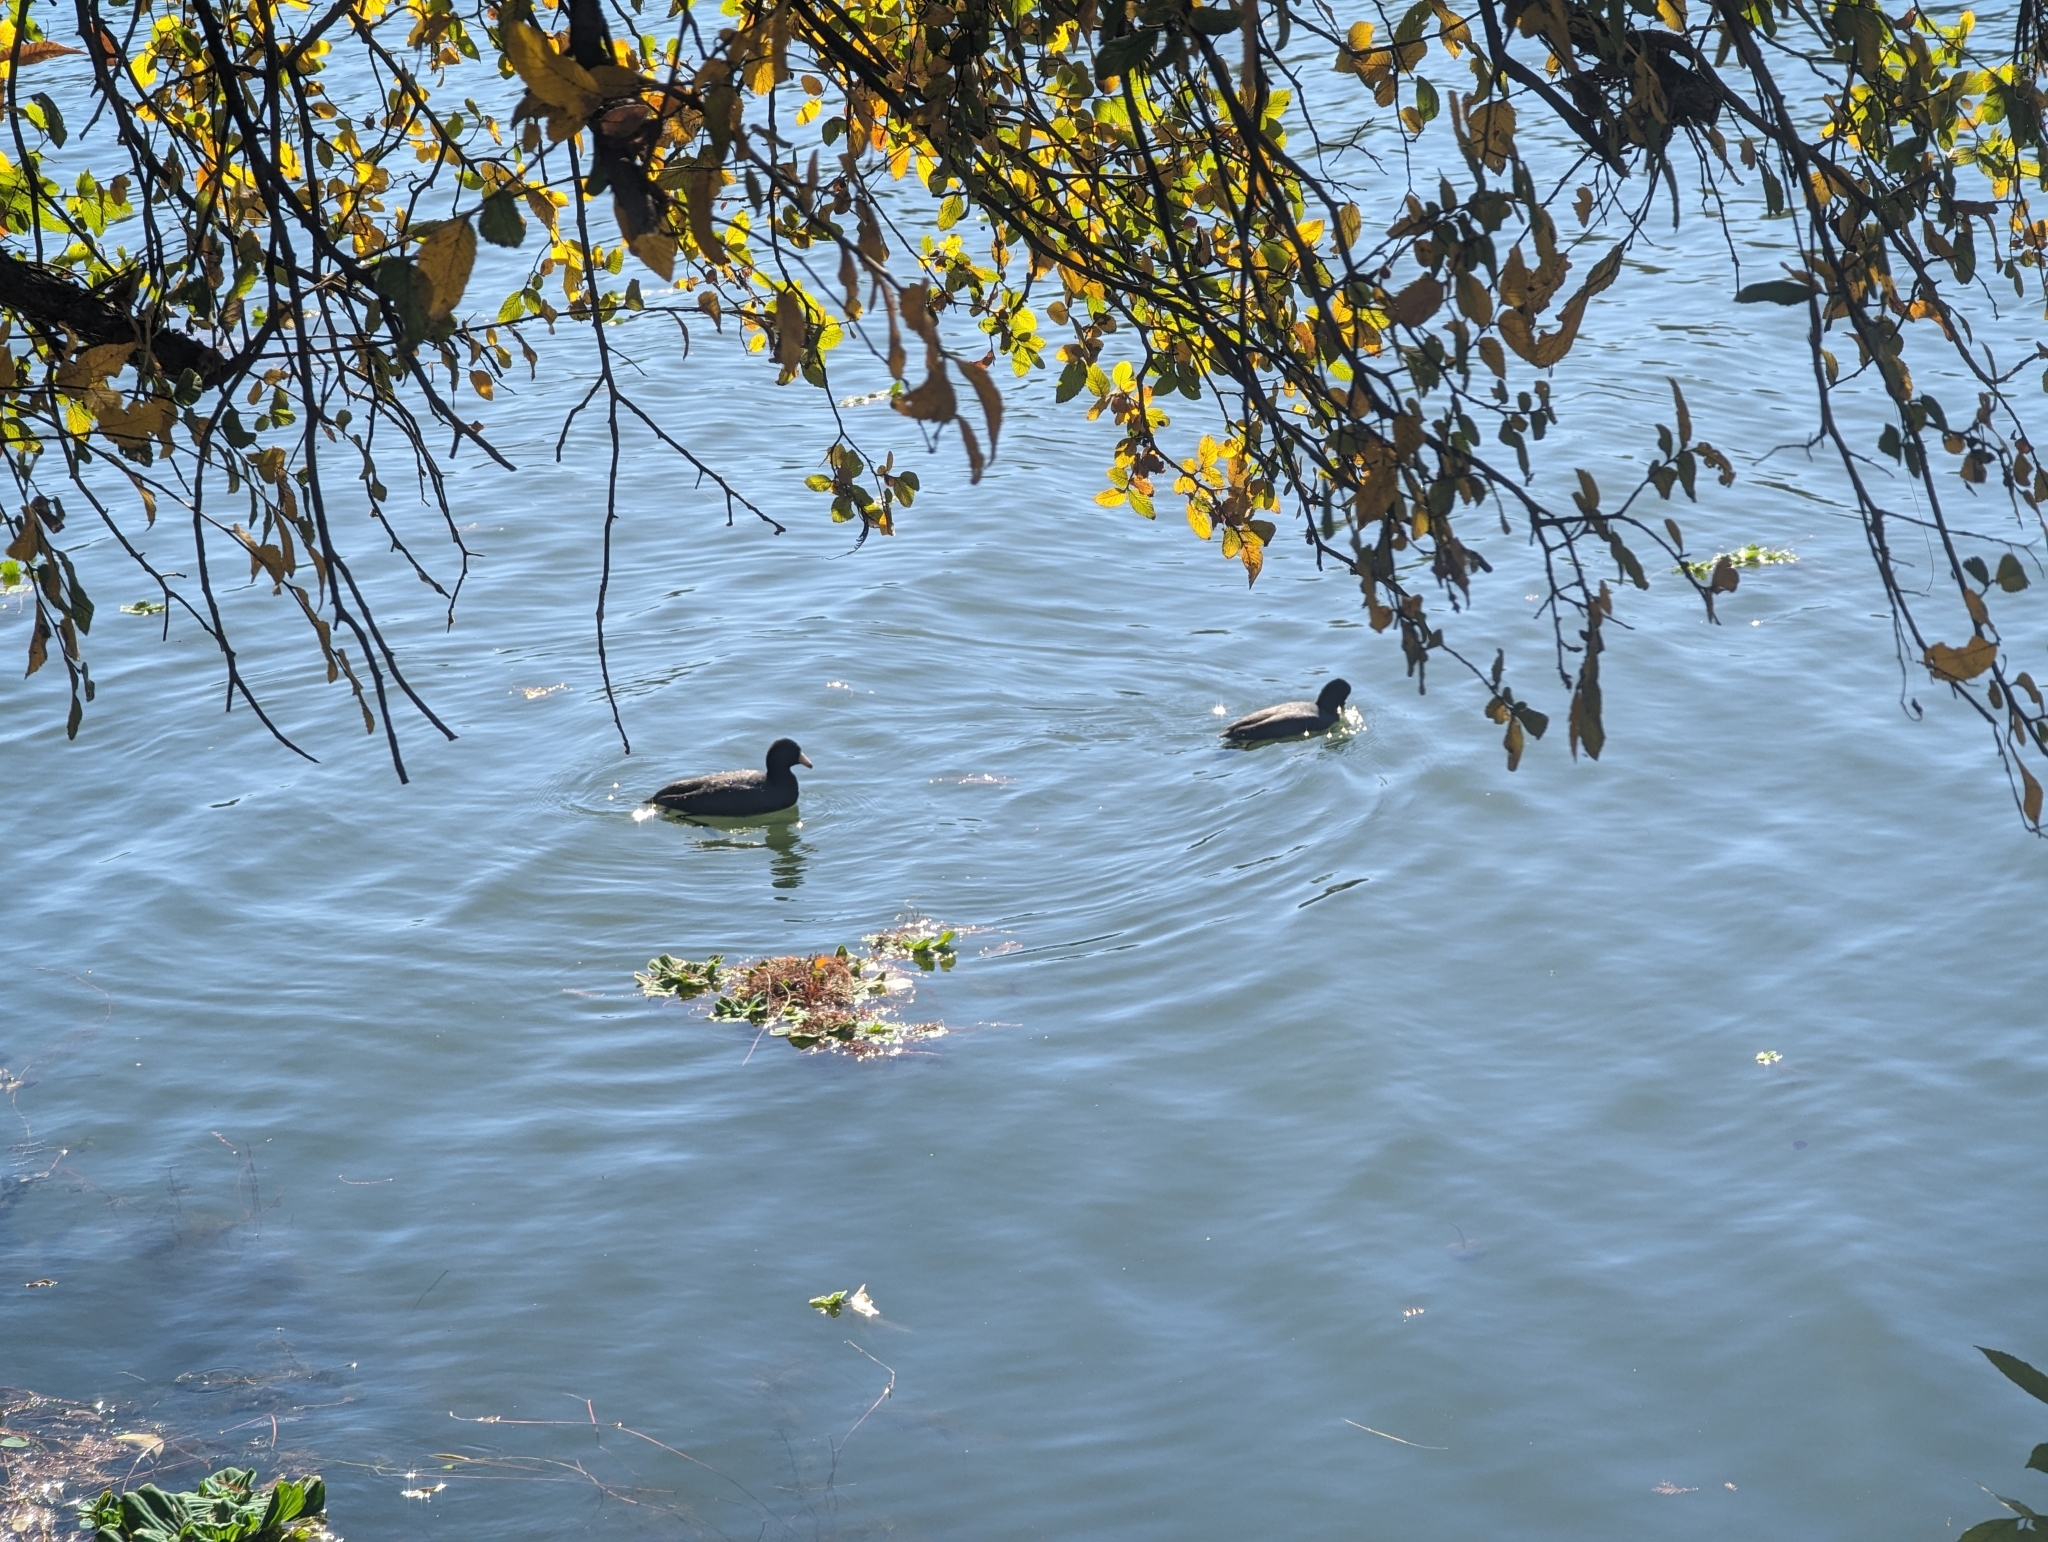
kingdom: Animalia
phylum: Chordata
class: Aves
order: Gruiformes
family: Rallidae
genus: Fulica
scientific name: Fulica americana
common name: American coot
